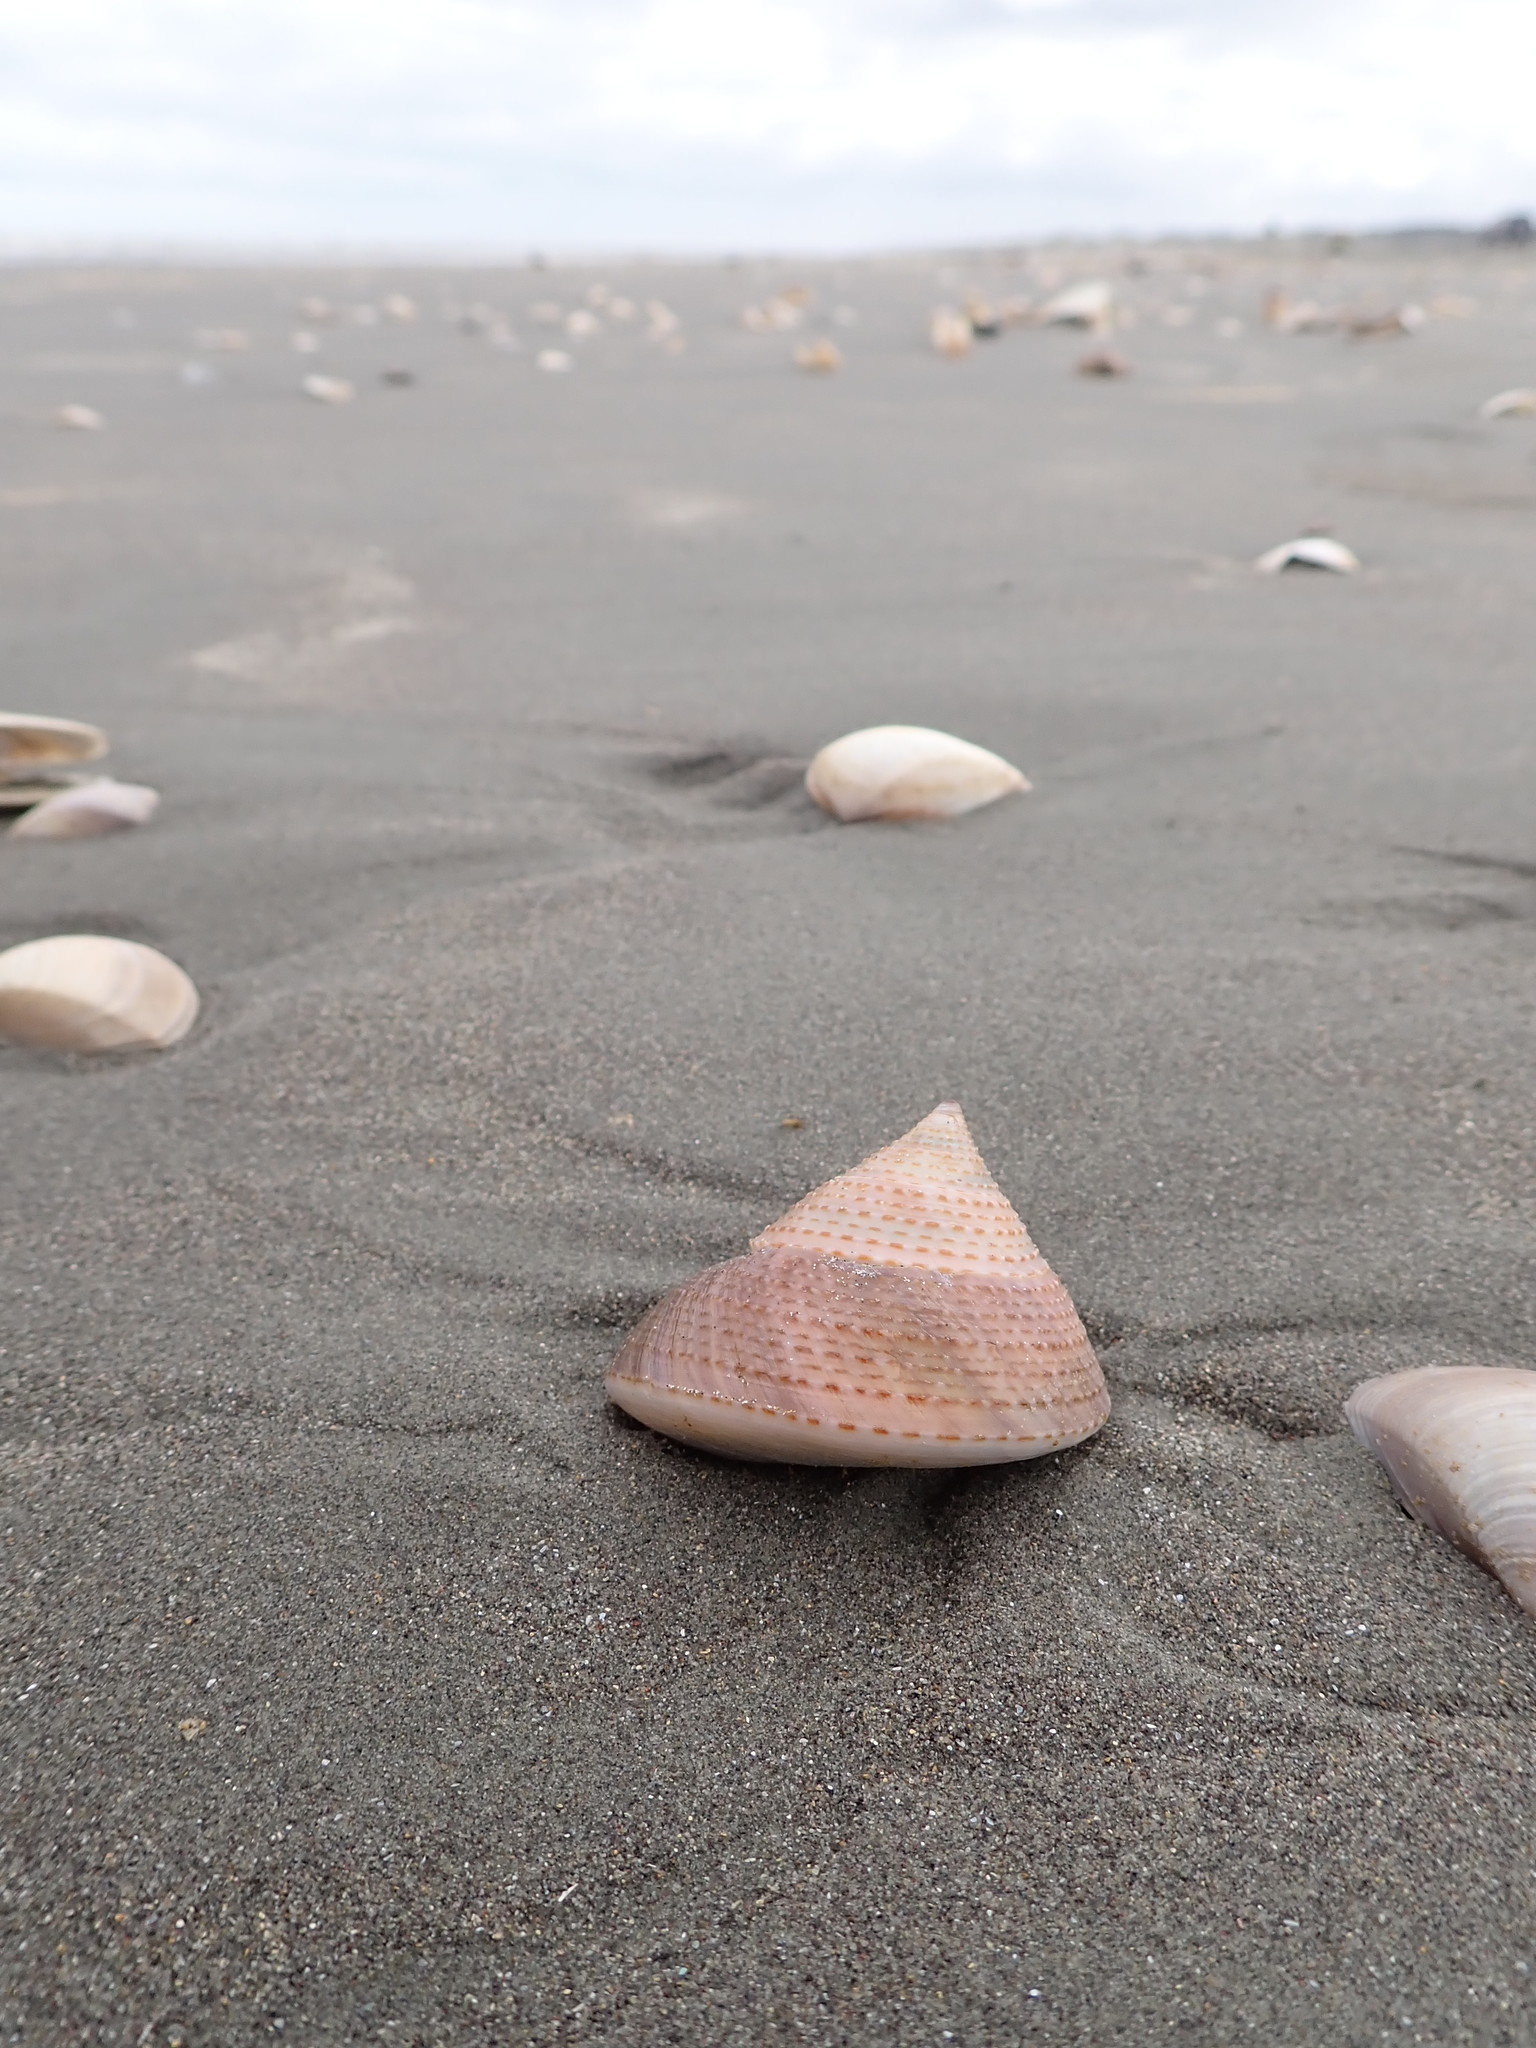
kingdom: Animalia
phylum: Mollusca
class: Gastropoda
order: Trochida
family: Calliostomatidae
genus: Maurea
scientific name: Maurea selecta
